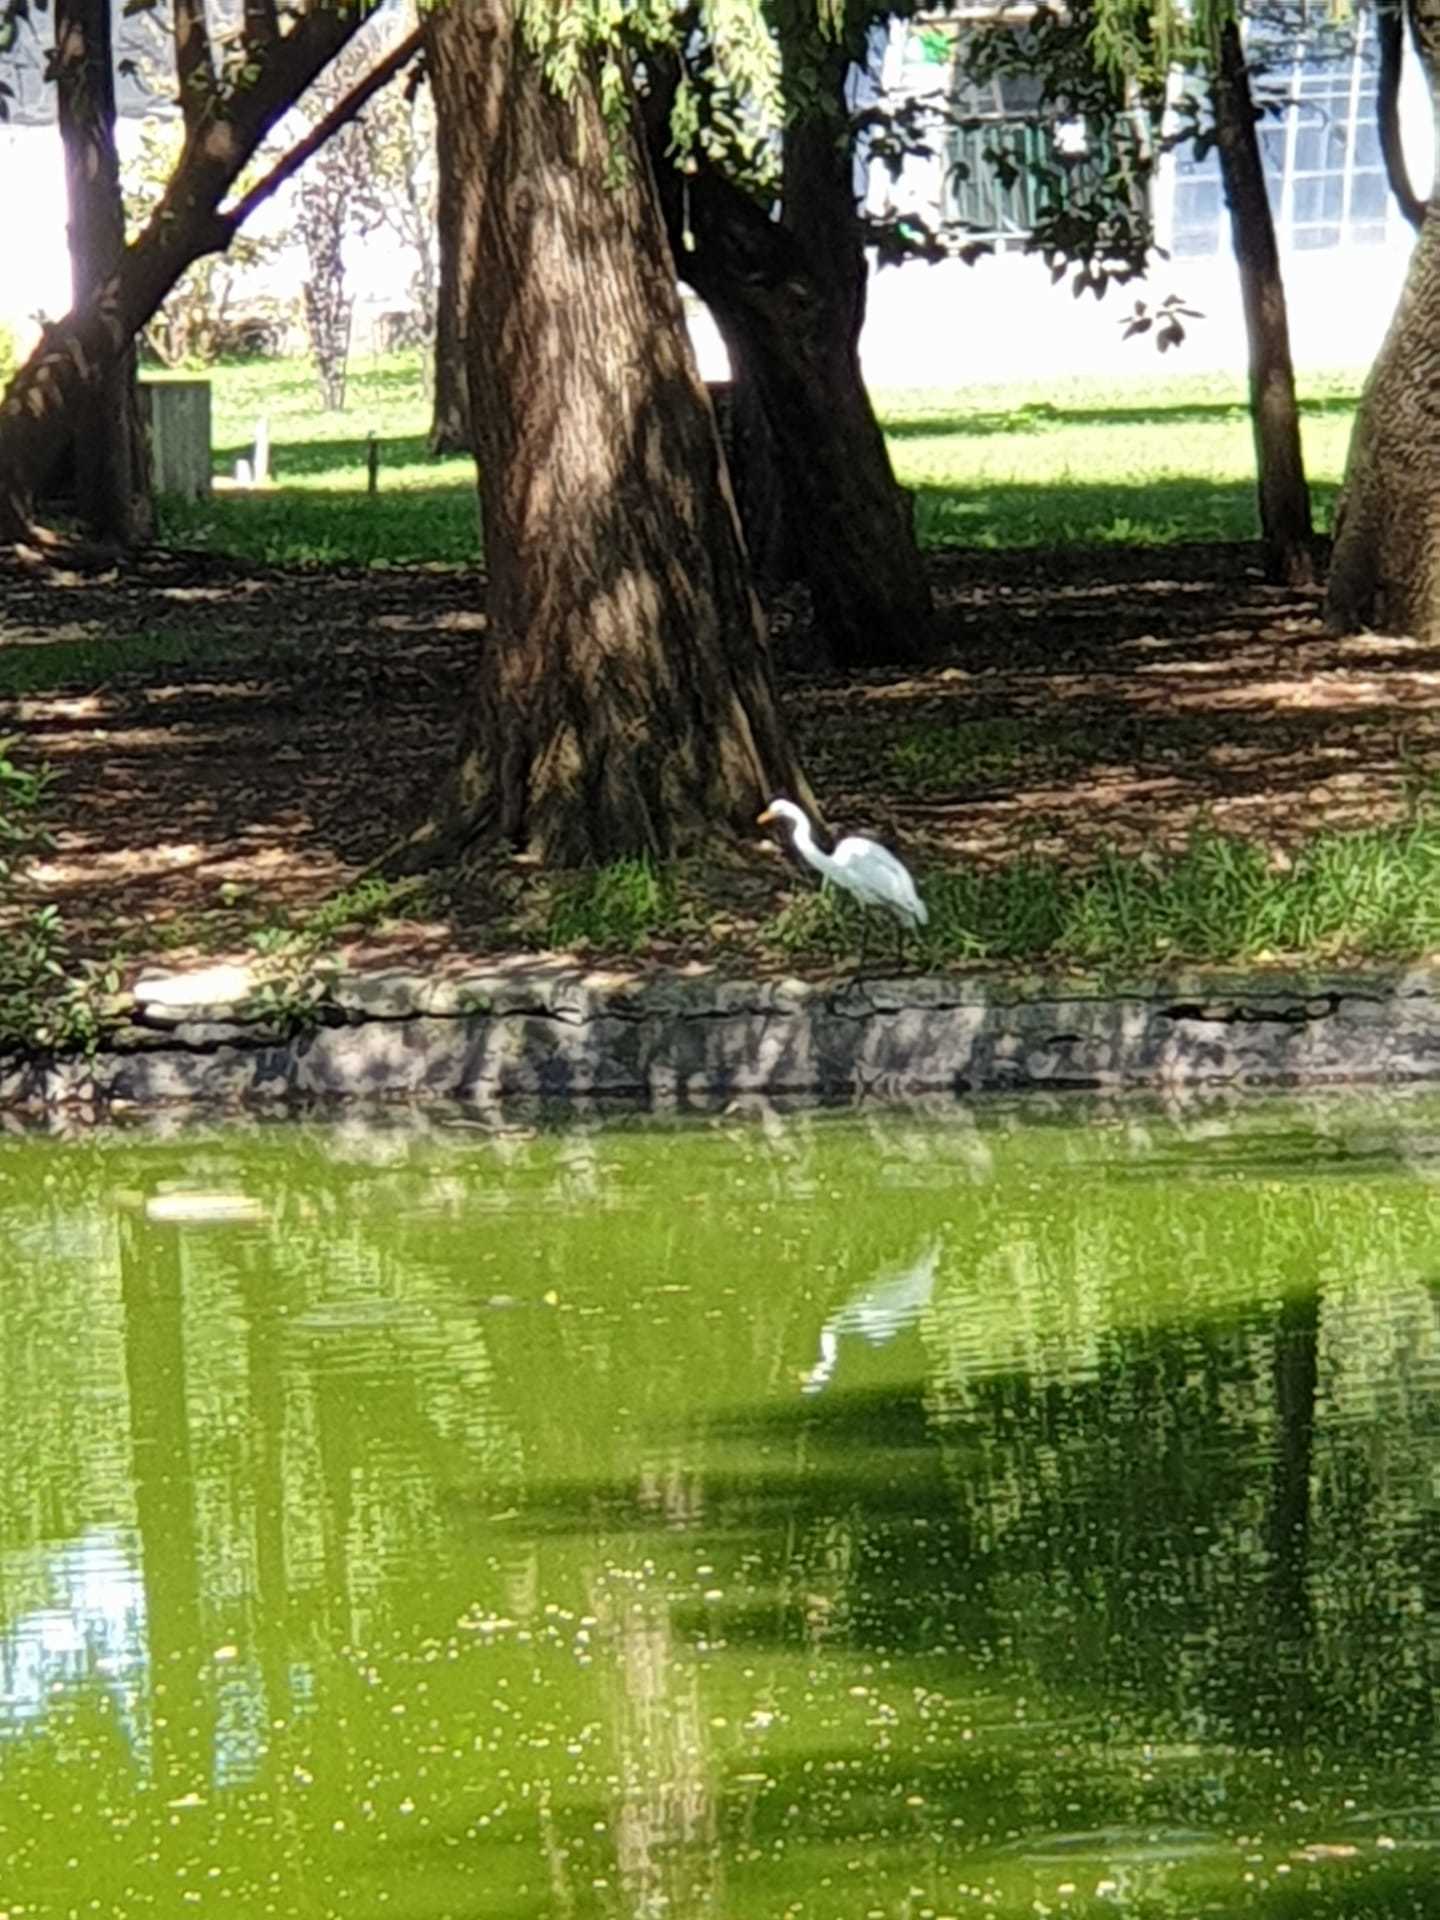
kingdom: Animalia
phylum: Chordata
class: Aves
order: Pelecaniformes
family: Ardeidae
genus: Ardea
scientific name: Ardea alba
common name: Great egret
